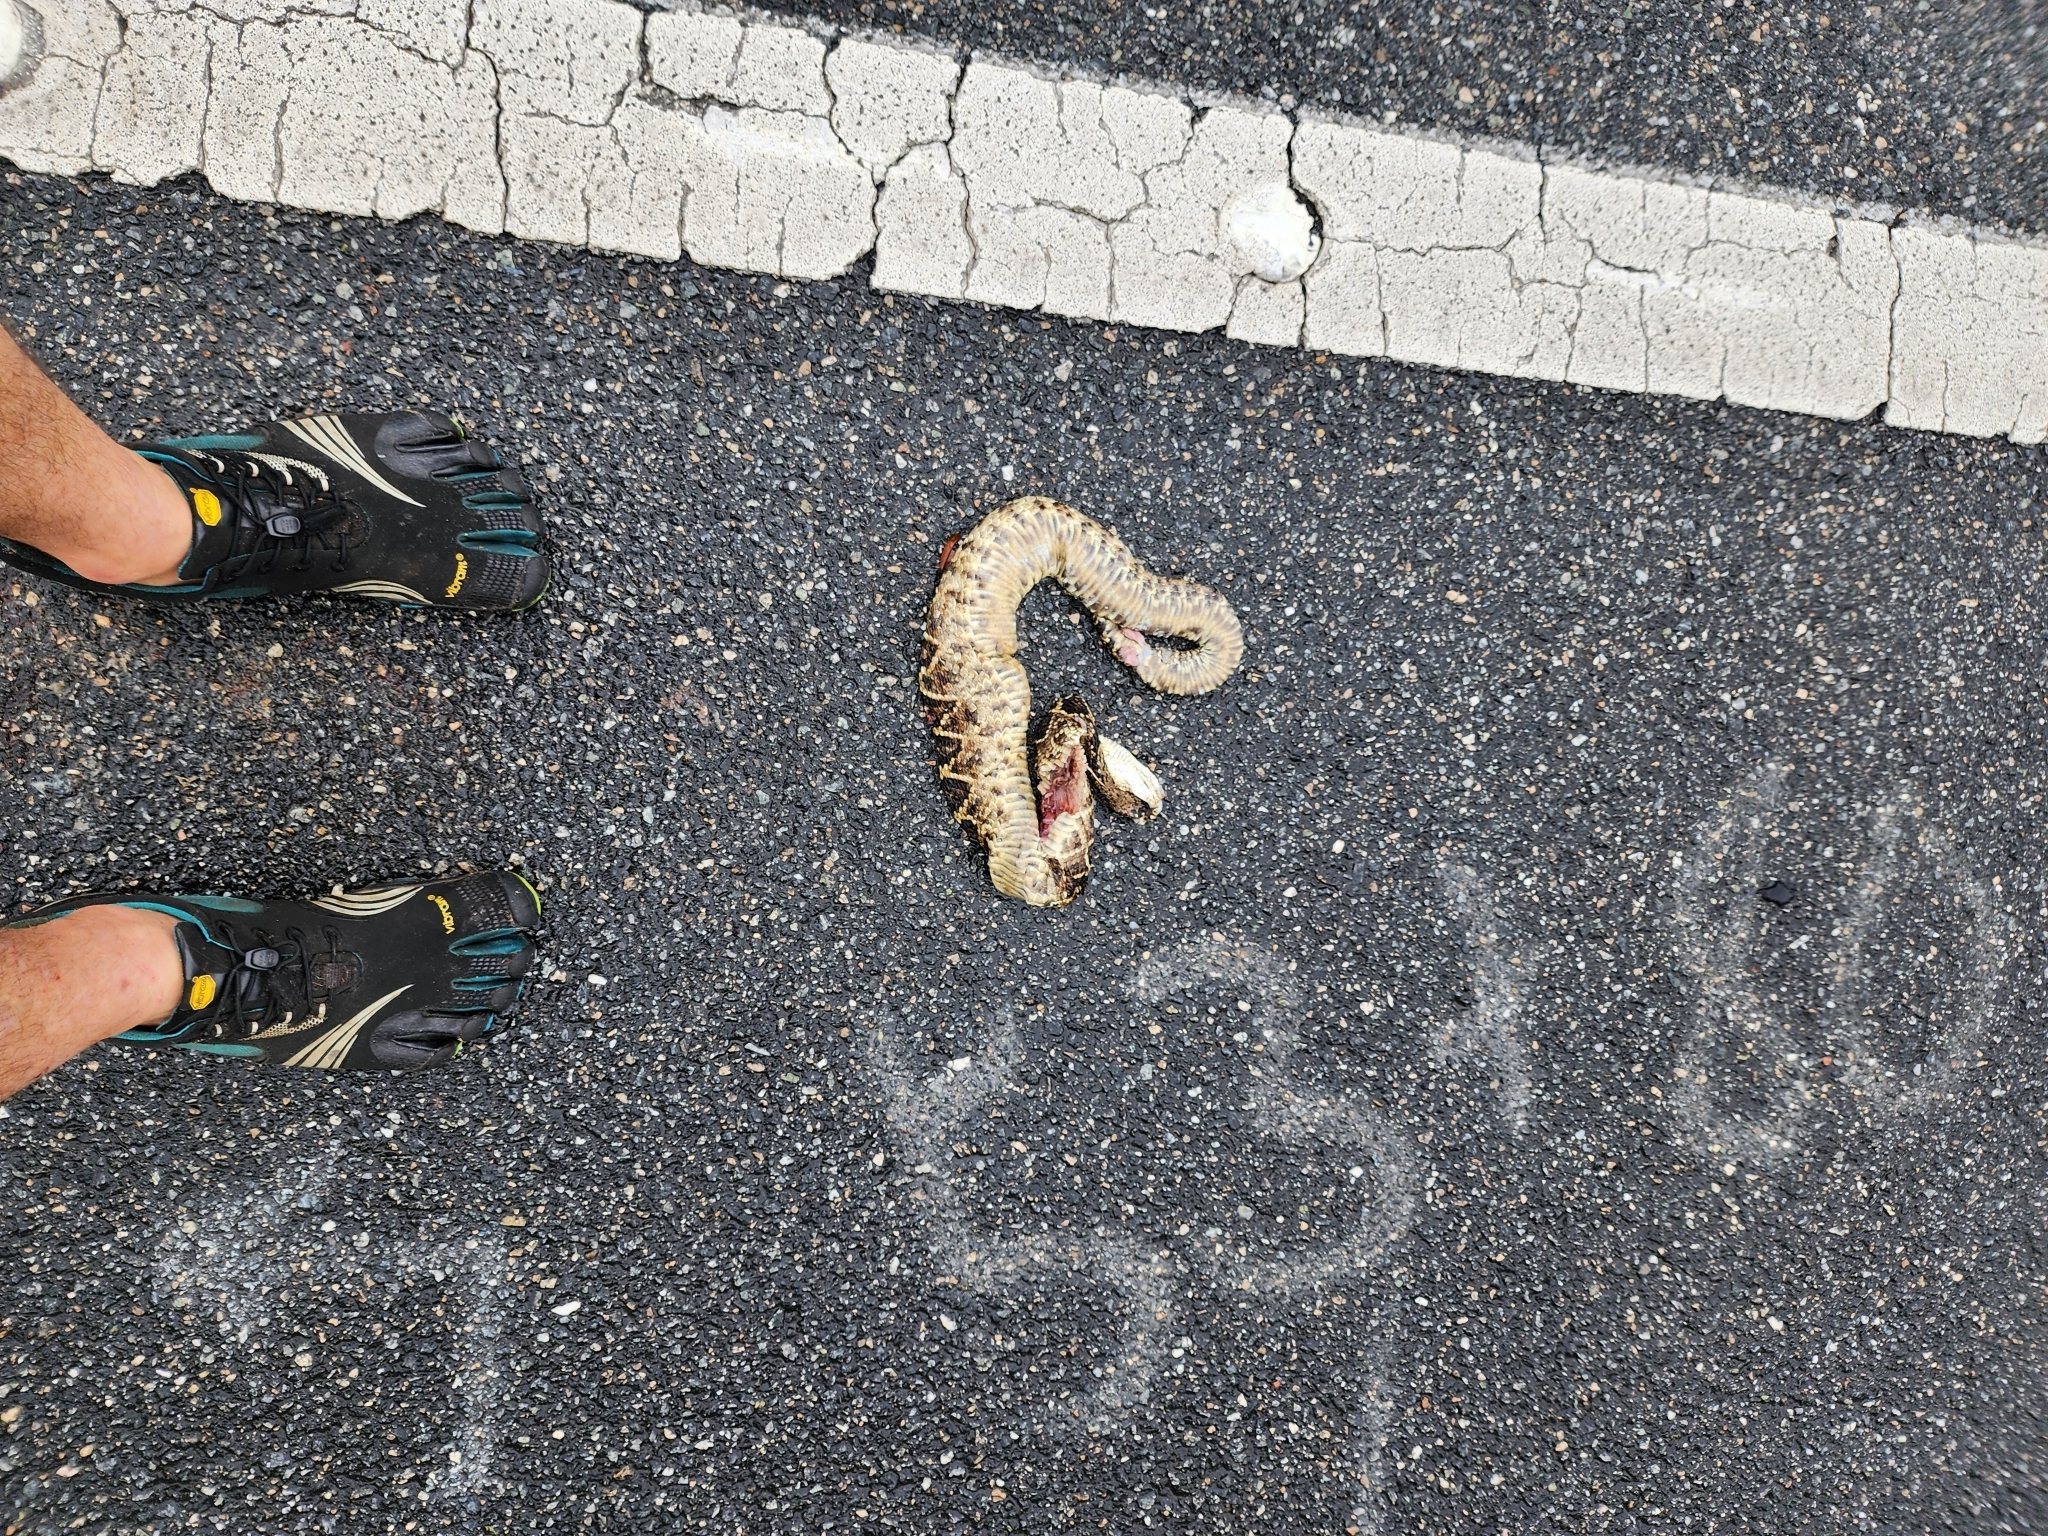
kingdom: Animalia
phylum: Chordata
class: Squamata
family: Viperidae
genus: Crotalus
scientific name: Crotalus adamanteus
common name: Eastern diamondback rattlesnake
